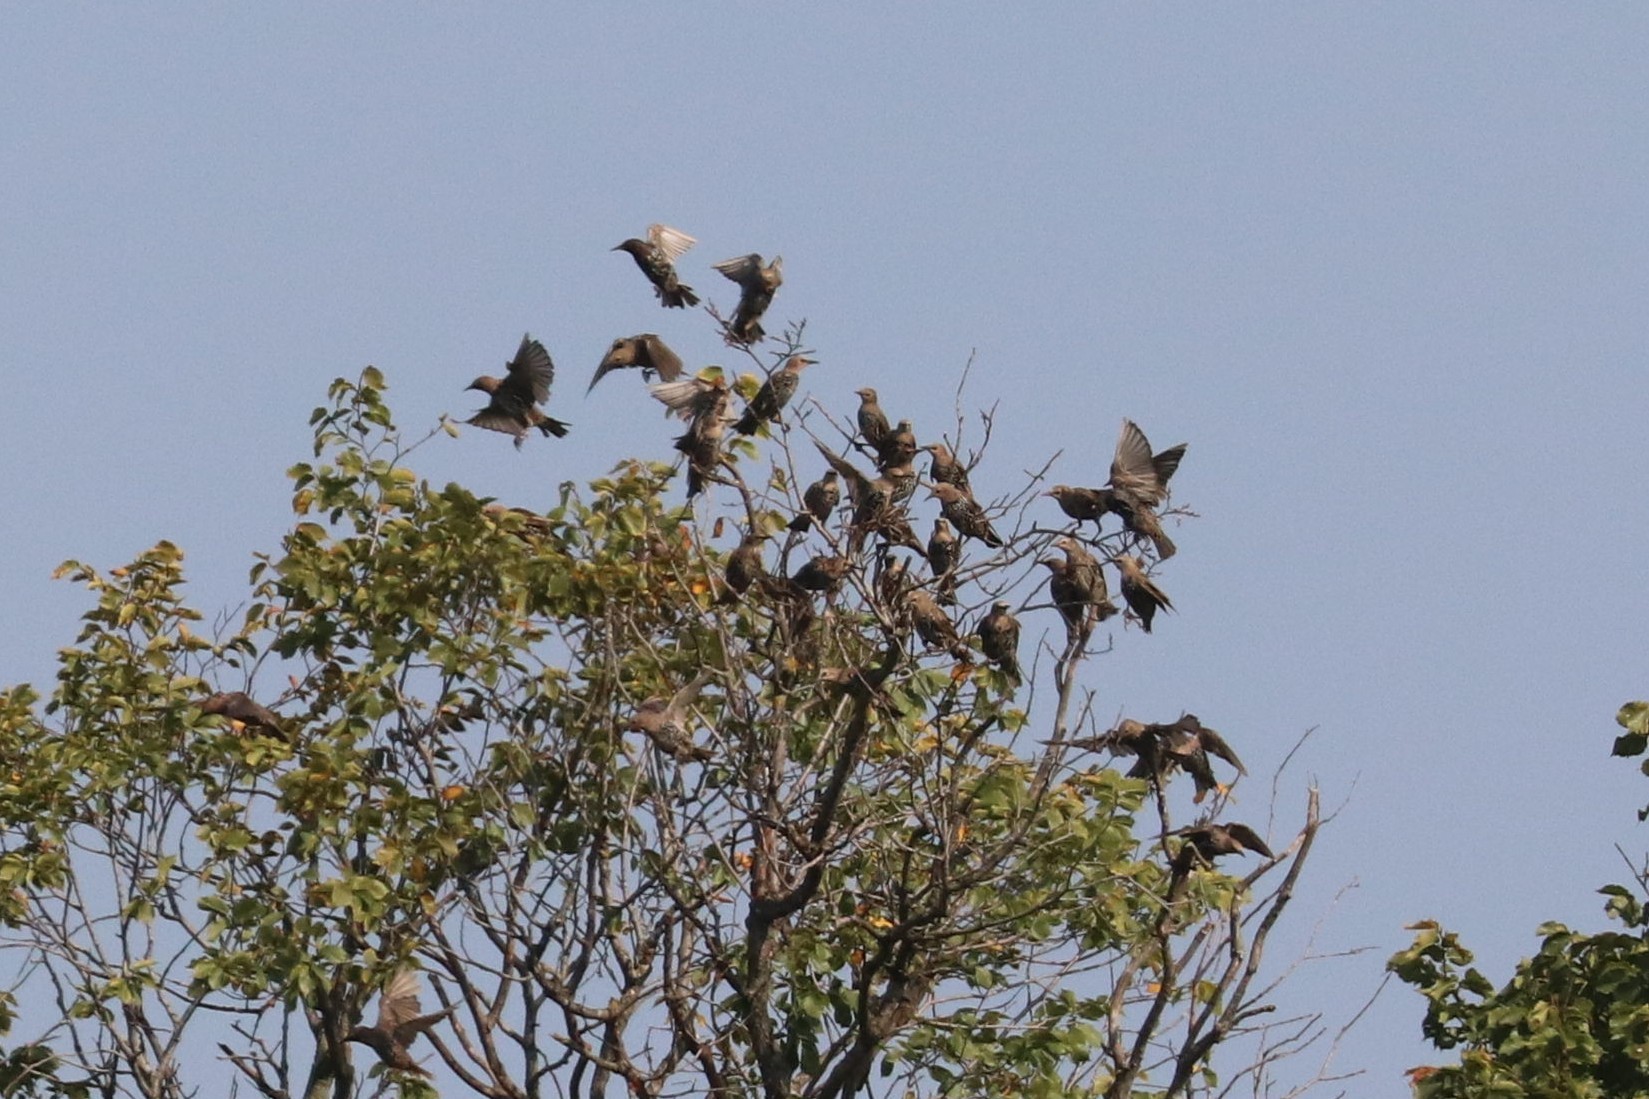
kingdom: Animalia
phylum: Chordata
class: Aves
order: Passeriformes
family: Sturnidae
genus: Sturnus
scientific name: Sturnus vulgaris
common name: Common starling
